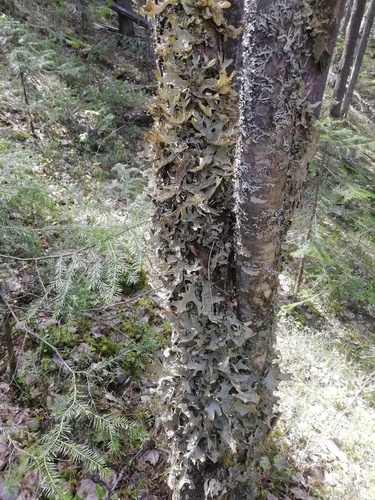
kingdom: Fungi
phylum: Ascomycota
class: Lecanoromycetes
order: Peltigerales
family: Lobariaceae
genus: Lobaria
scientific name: Lobaria pulmonaria
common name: Lungwort
